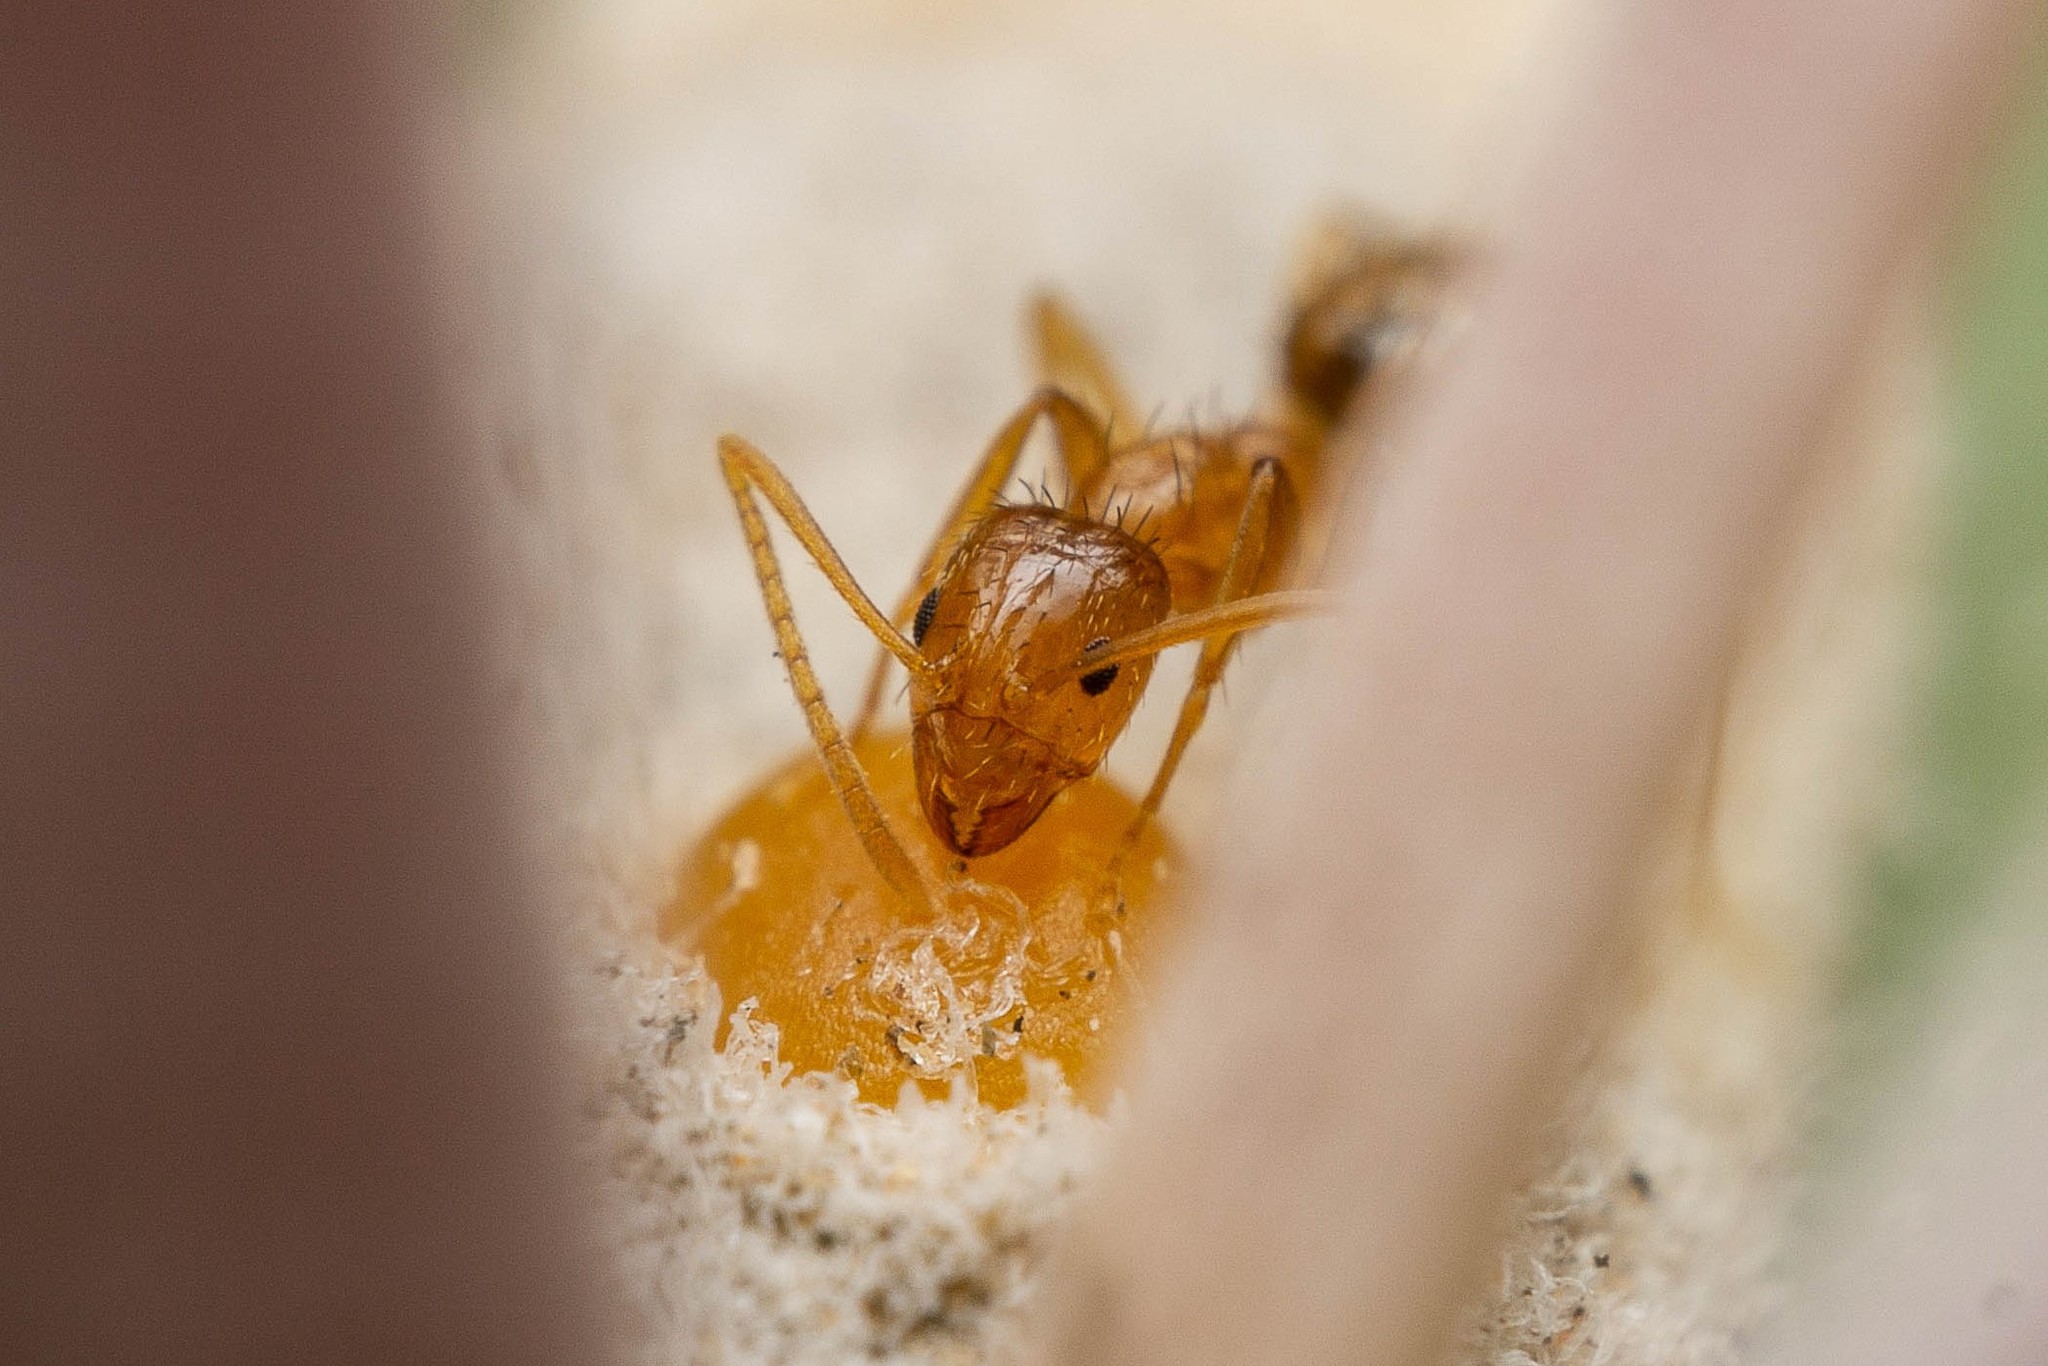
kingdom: Animalia
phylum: Arthropoda
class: Insecta
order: Hymenoptera
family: Formicidae
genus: Nylanderia
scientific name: Nylanderia terricola
